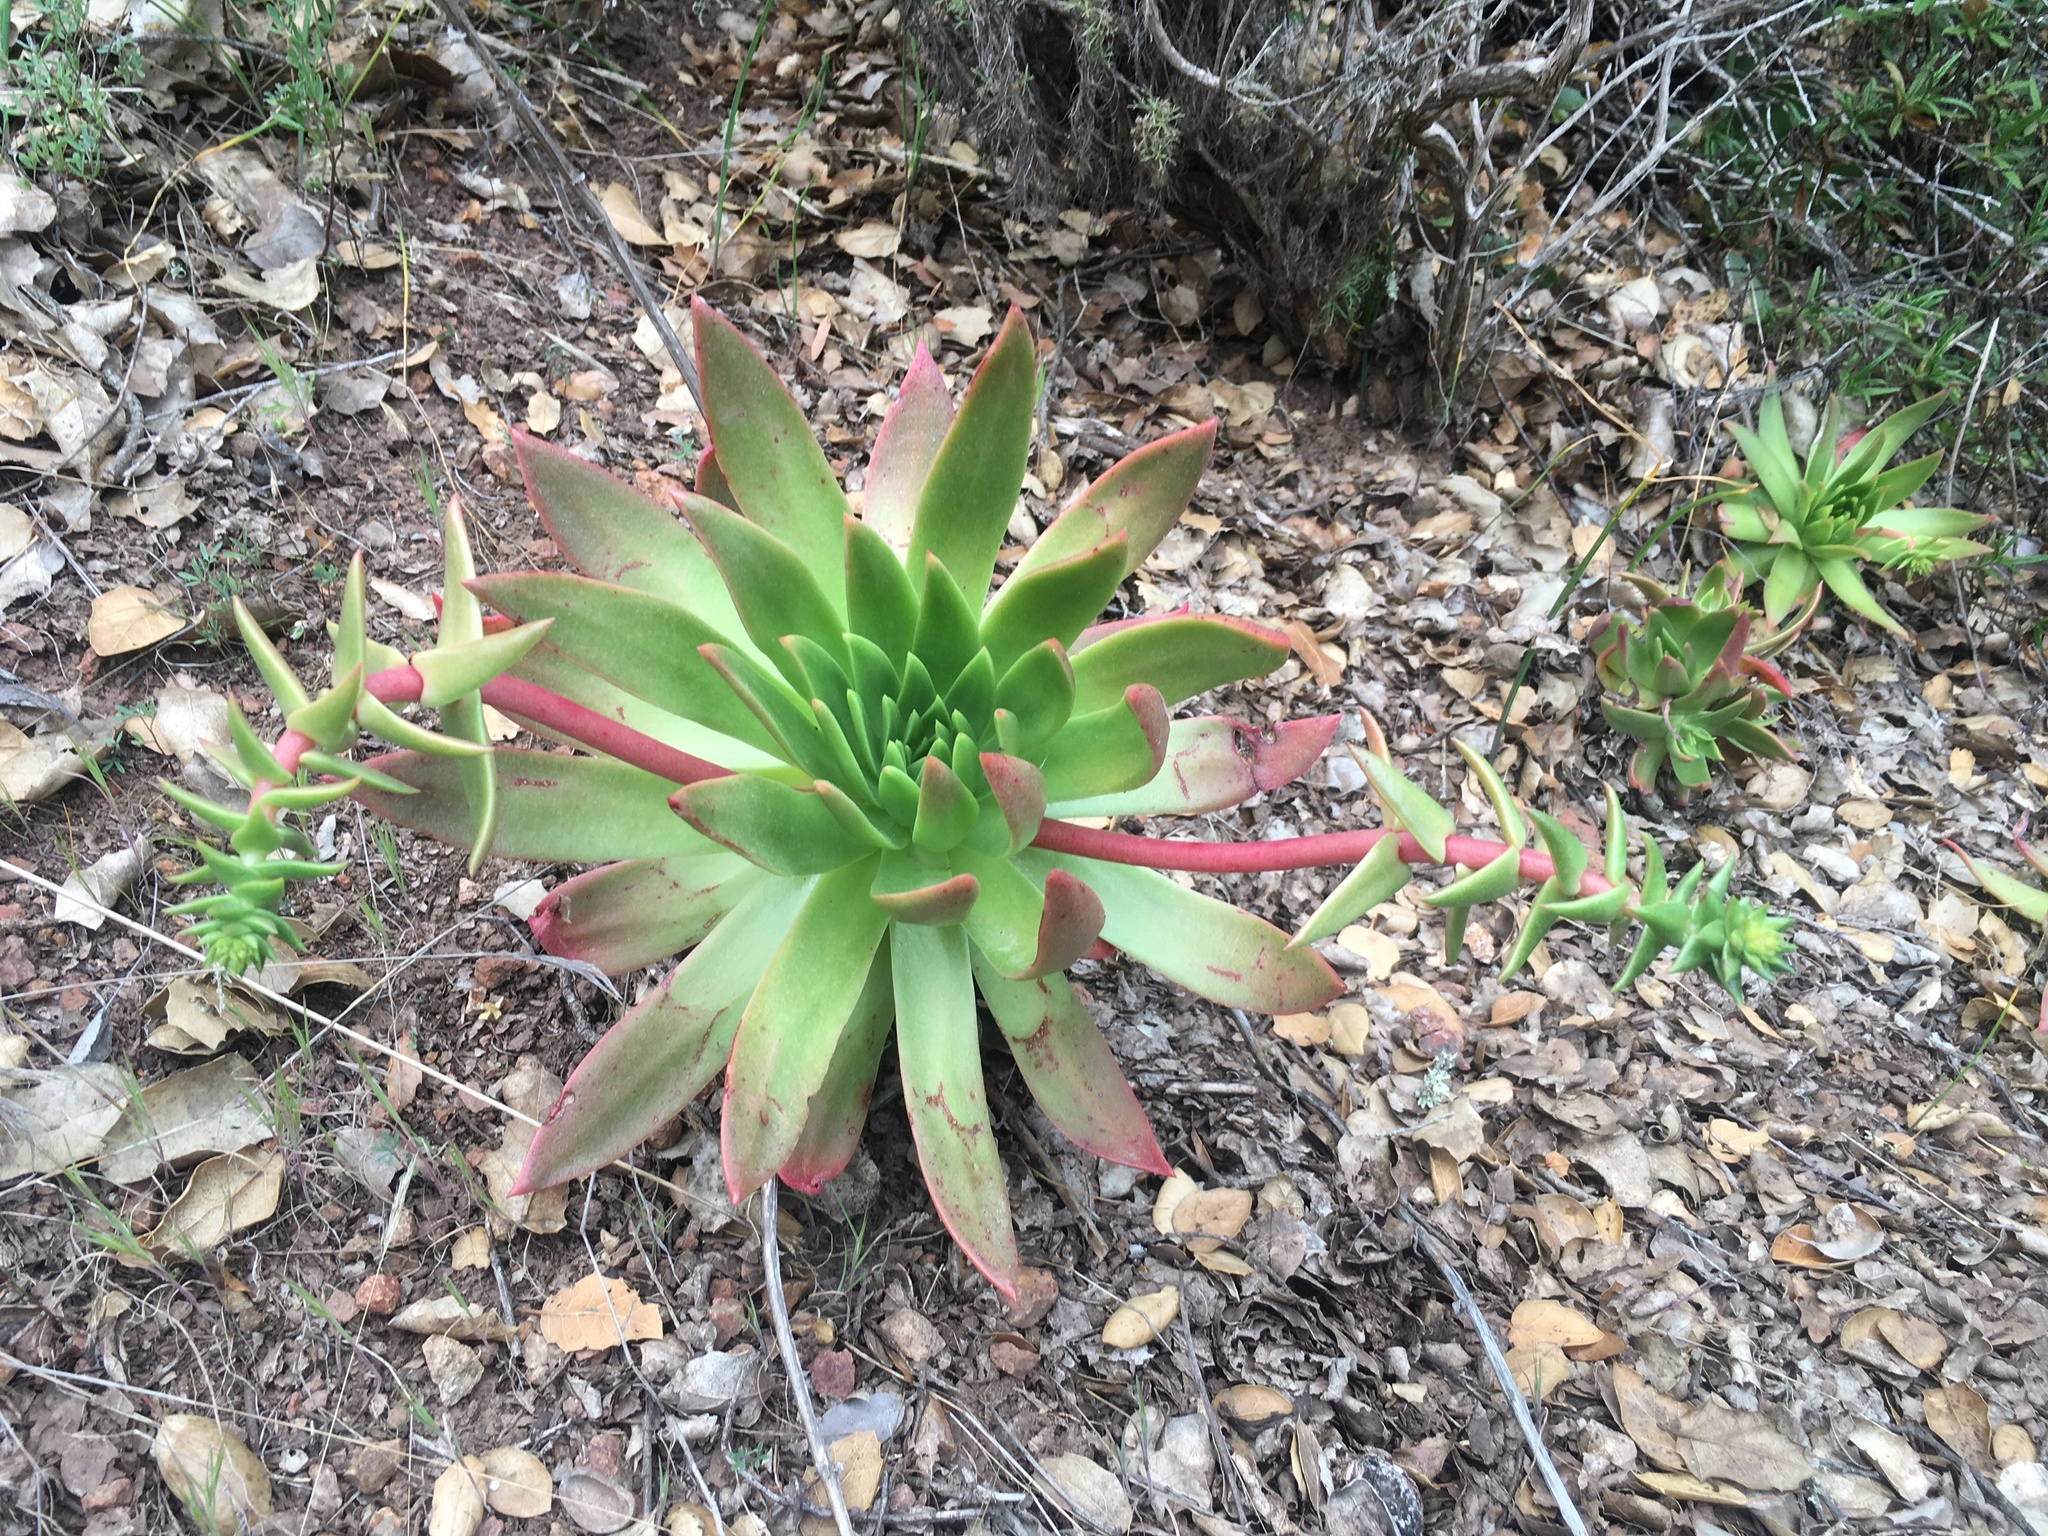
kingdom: Plantae
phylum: Tracheophyta
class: Magnoliopsida
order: Saxifragales
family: Crassulaceae
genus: Dudleya
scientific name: Dudleya candelabrum
